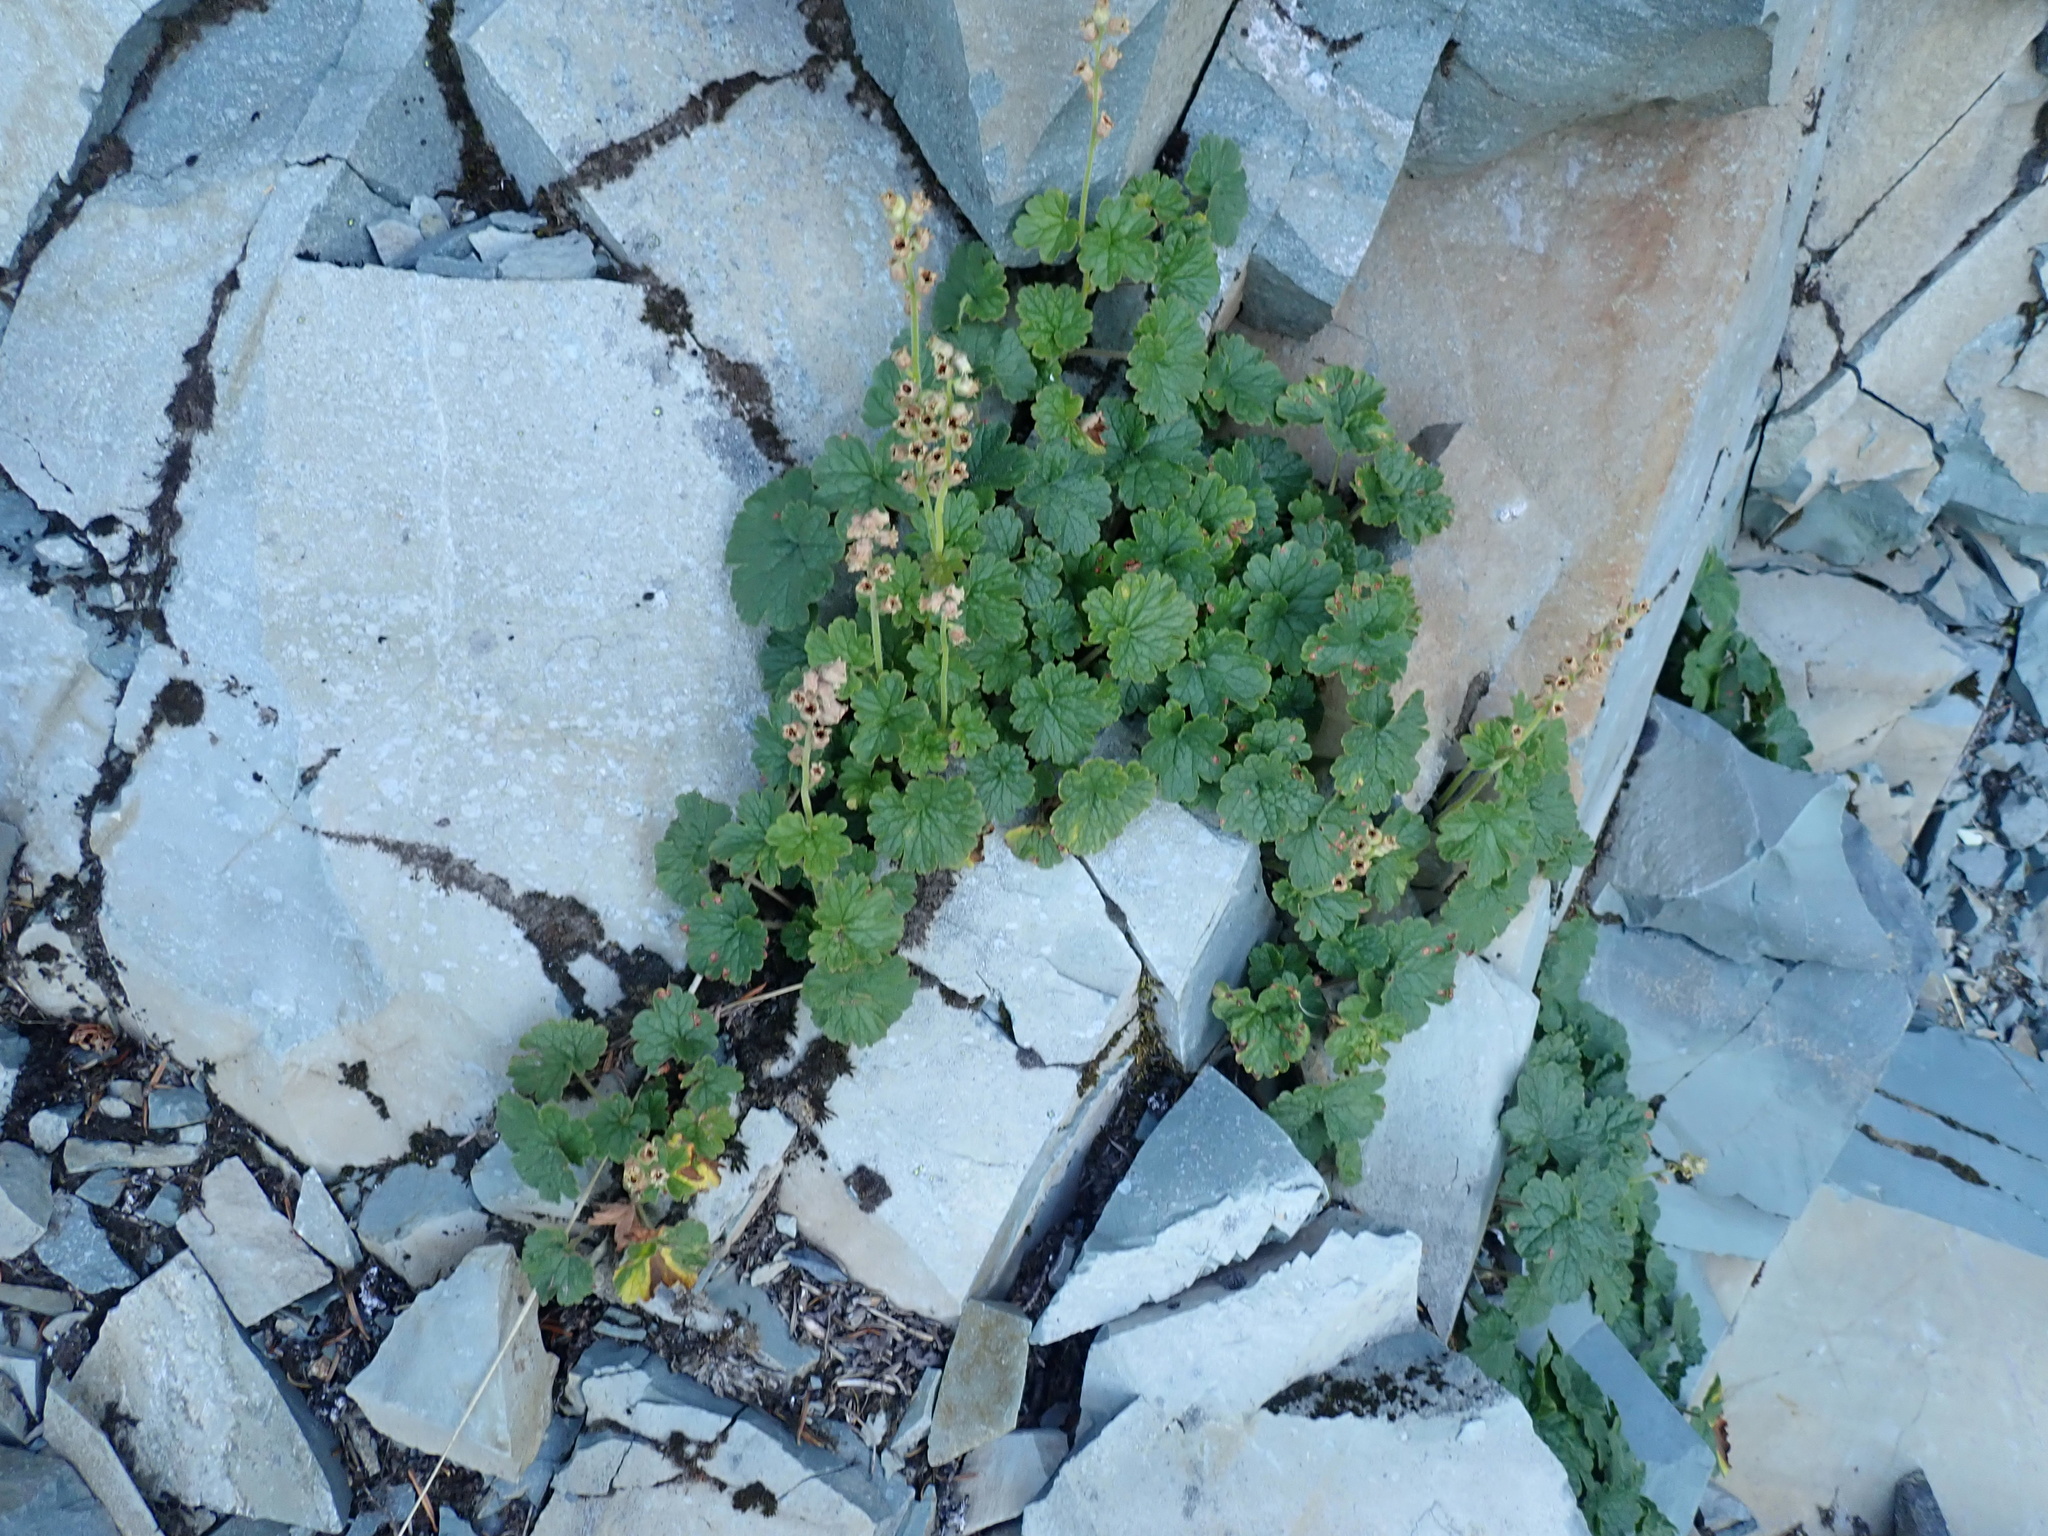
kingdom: Plantae
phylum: Tracheophyta
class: Magnoliopsida
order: Saxifragales
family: Saxifragaceae
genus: Elmera
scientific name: Elmera racemosa
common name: Elmera
